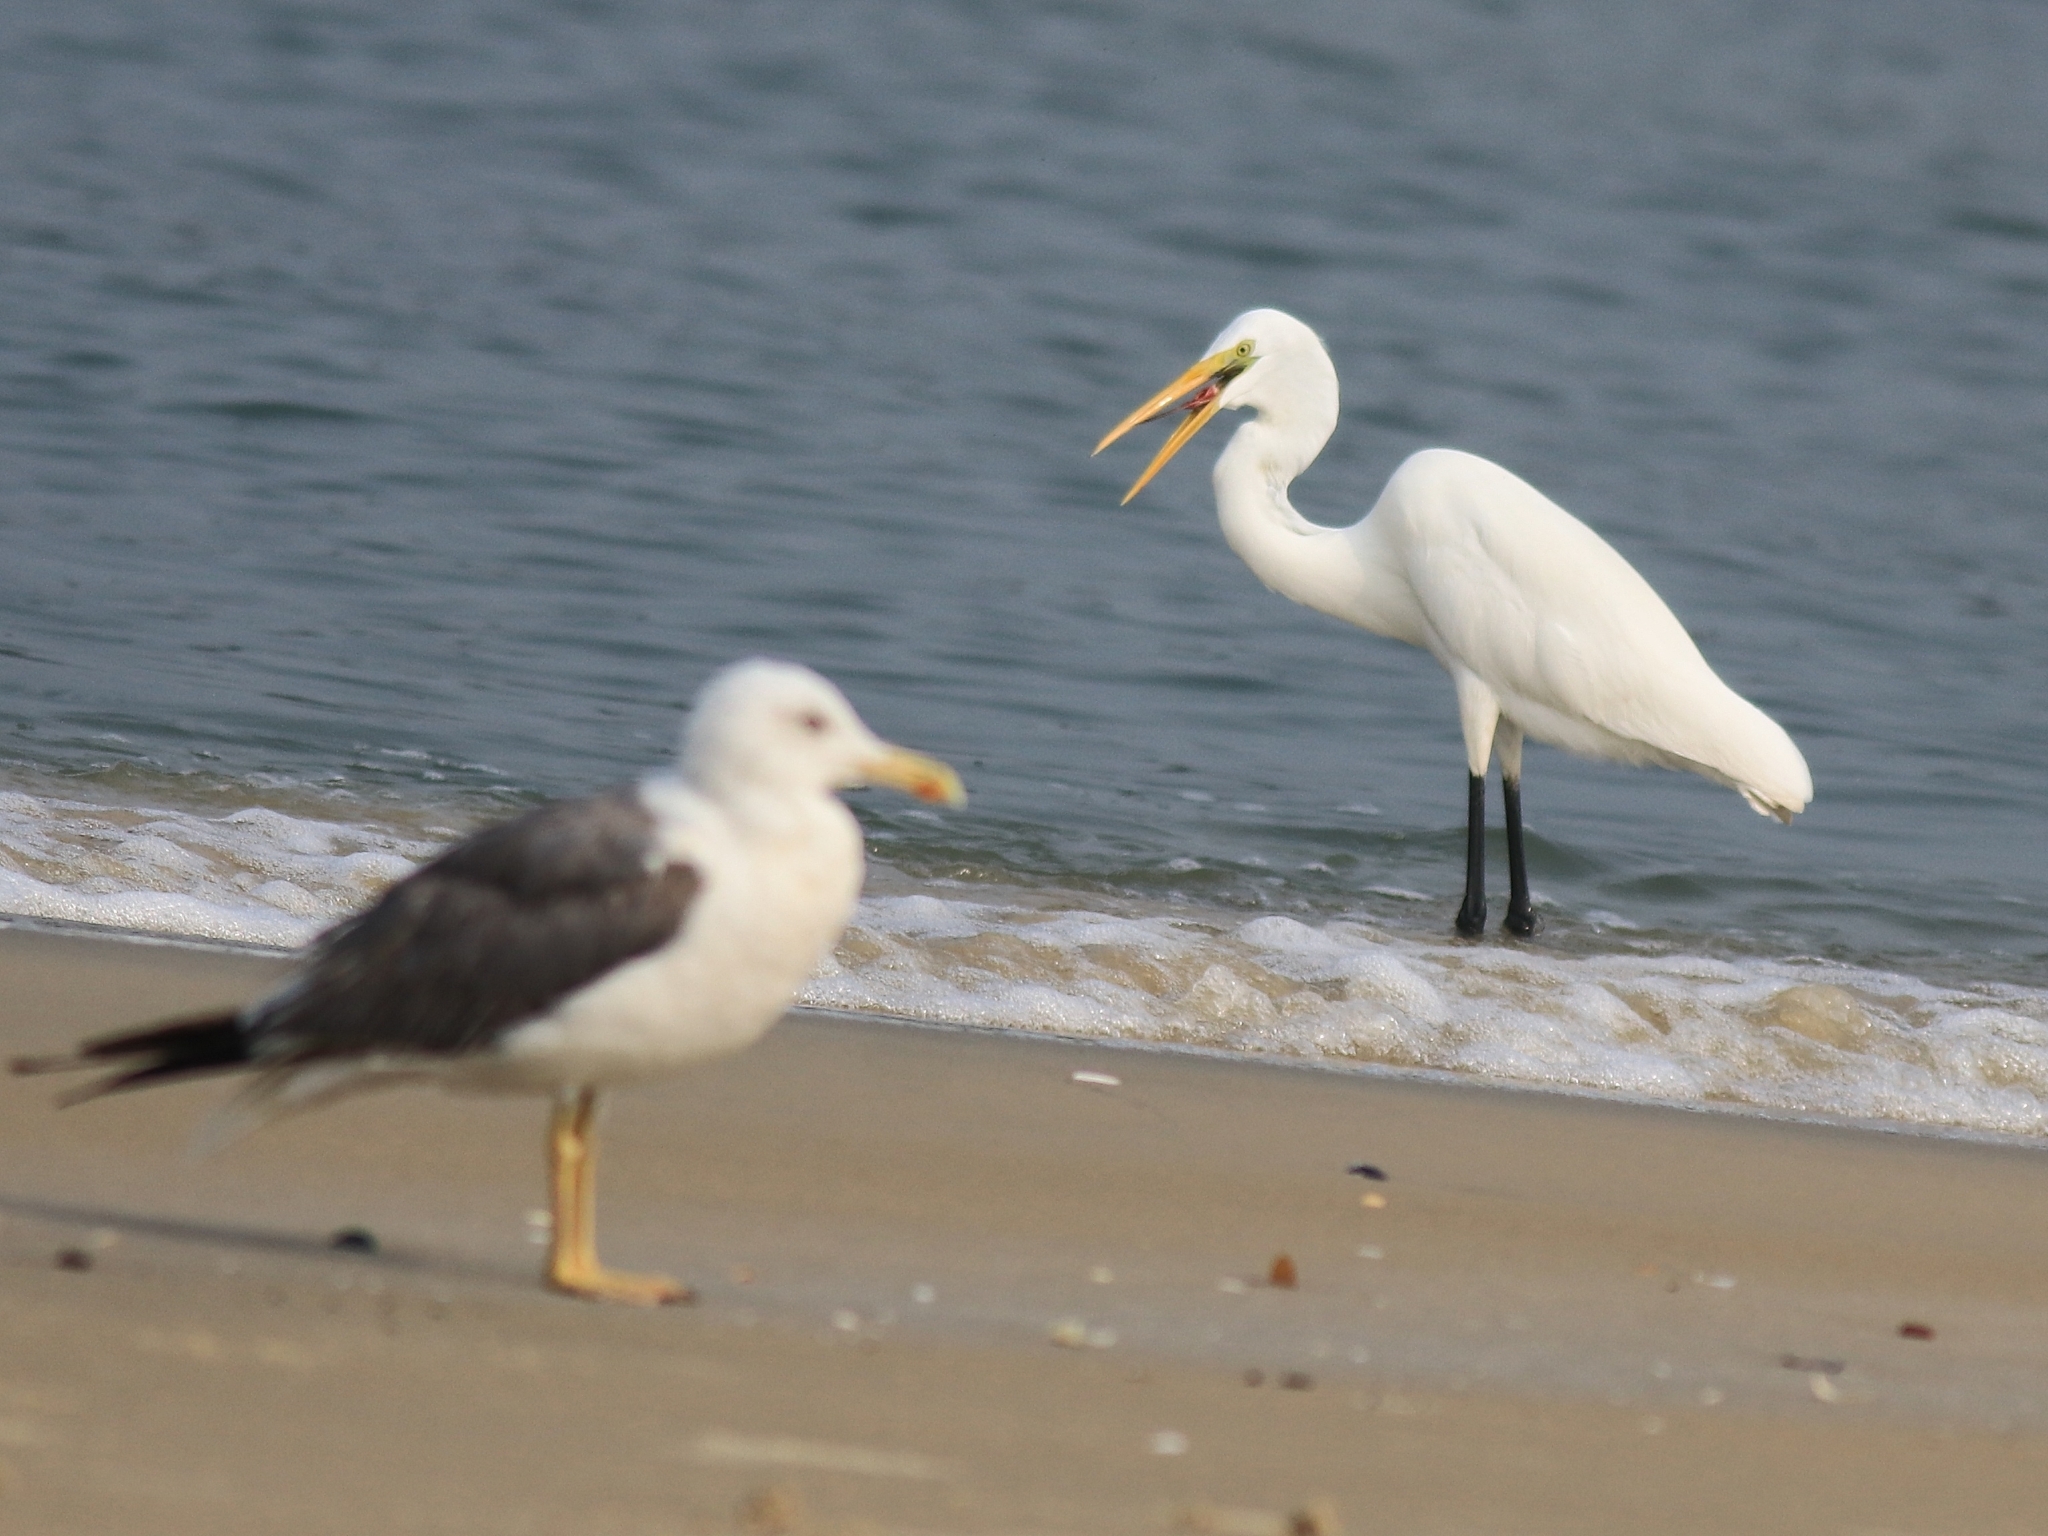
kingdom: Animalia
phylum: Chordata
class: Aves
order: Pelecaniformes
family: Ardeidae
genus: Ardea
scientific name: Ardea alba
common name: Great egret
